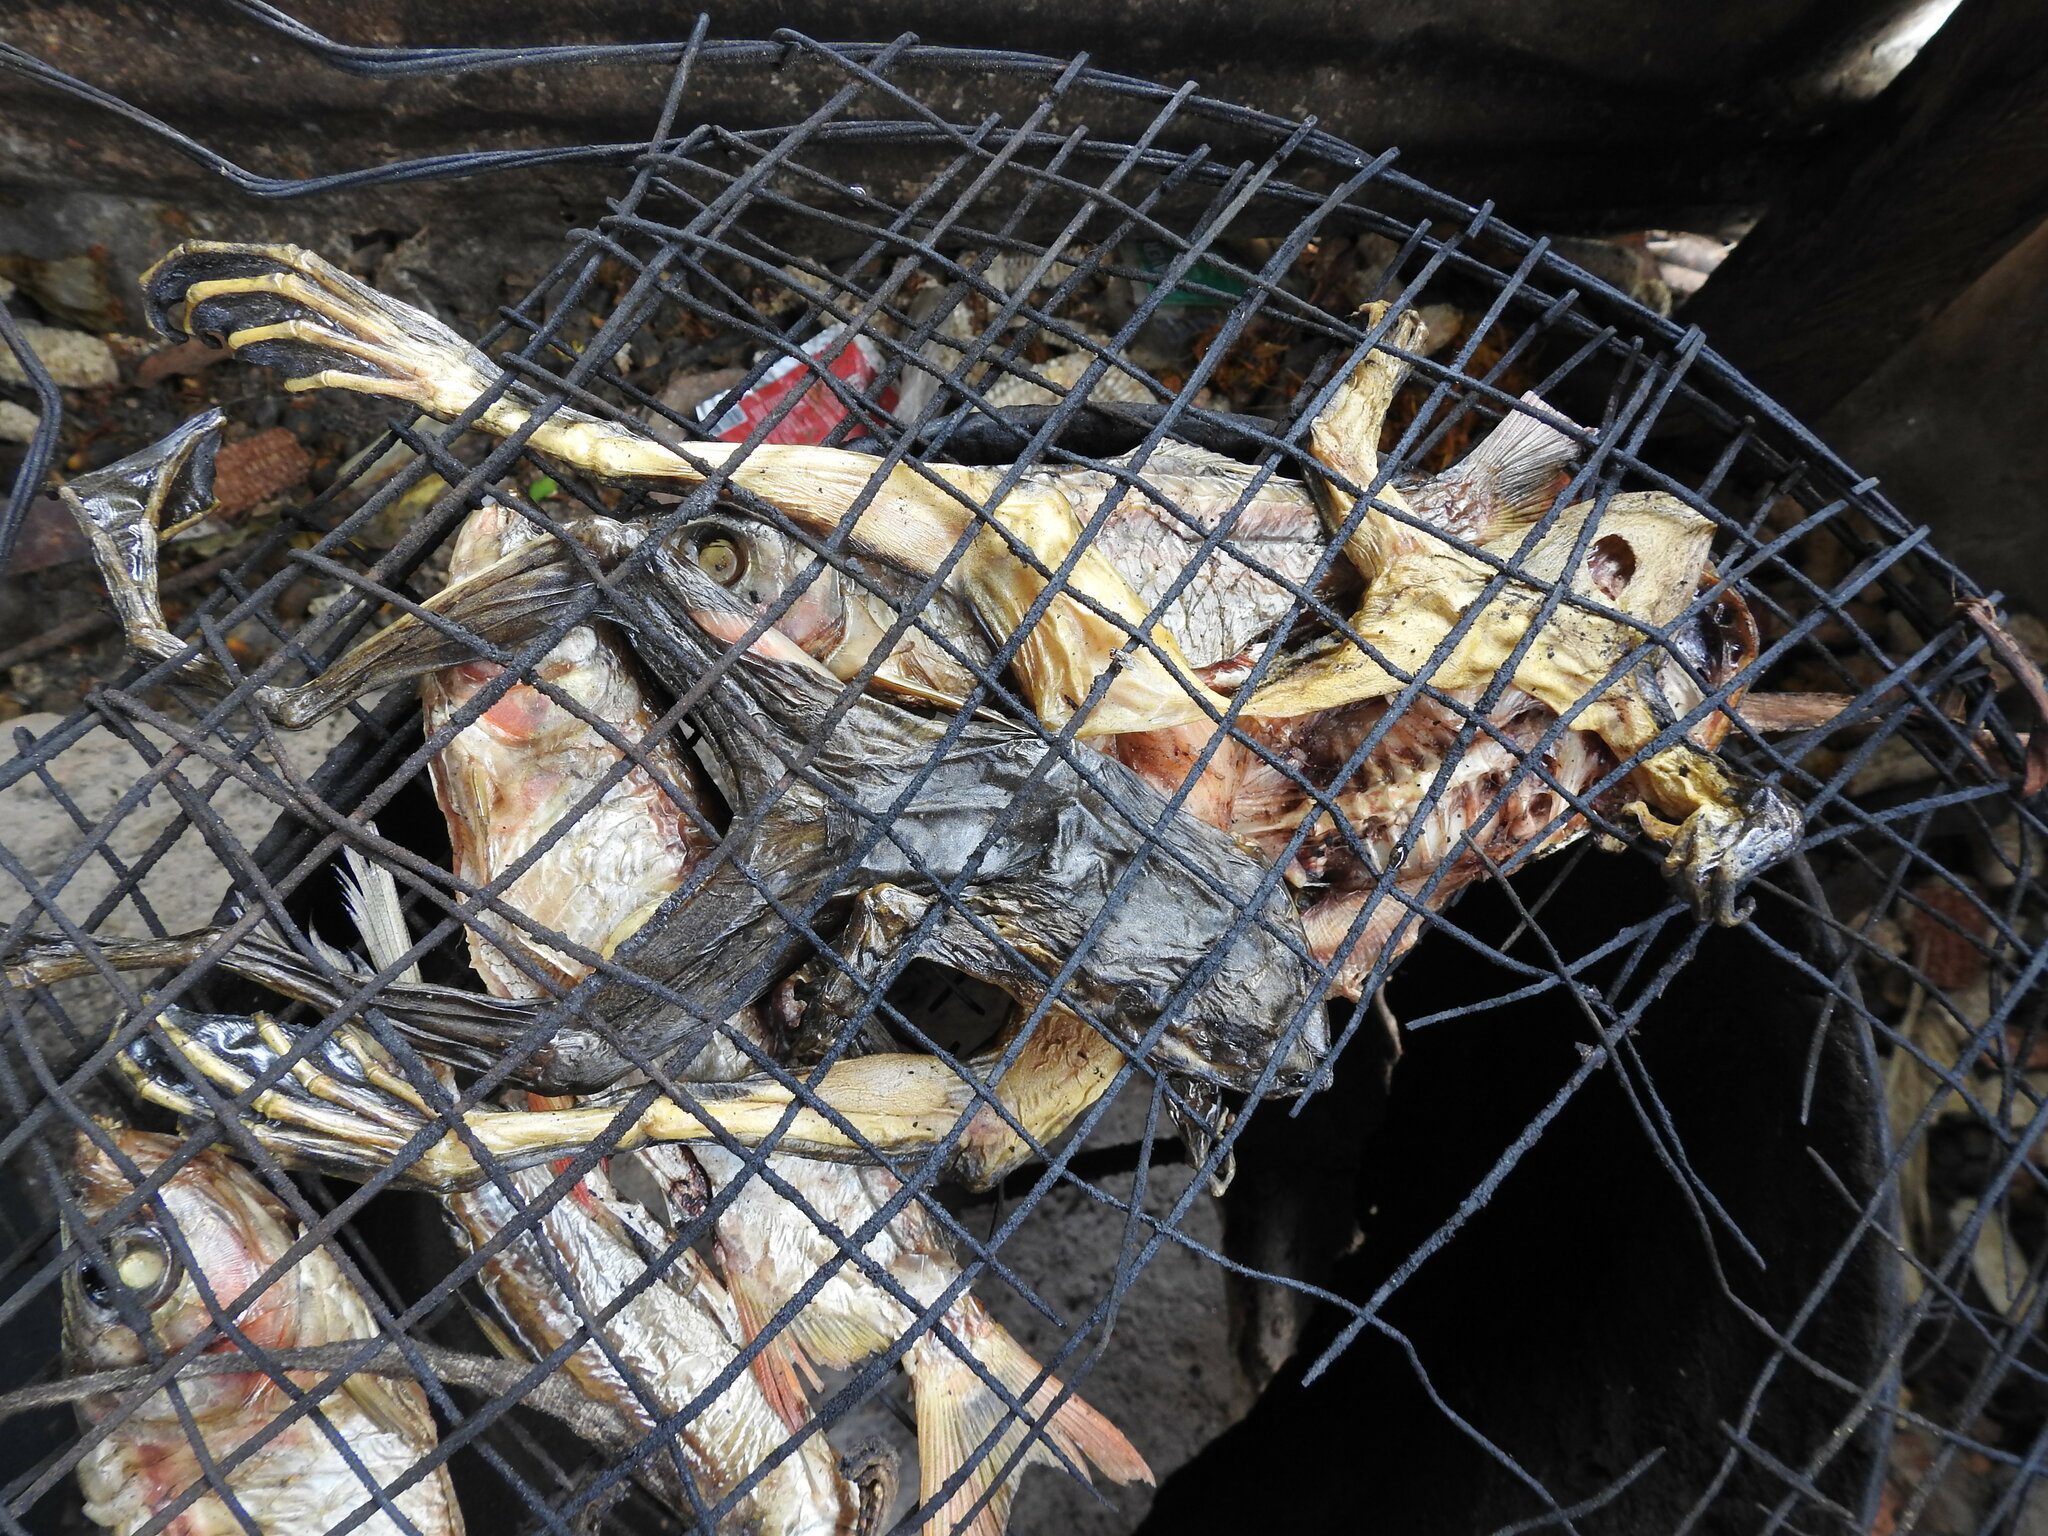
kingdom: Animalia
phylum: Chordata
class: Amphibia
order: Anura
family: Conrauidae
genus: Conraua
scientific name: Conraua goliath
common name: Giant slippery frog
